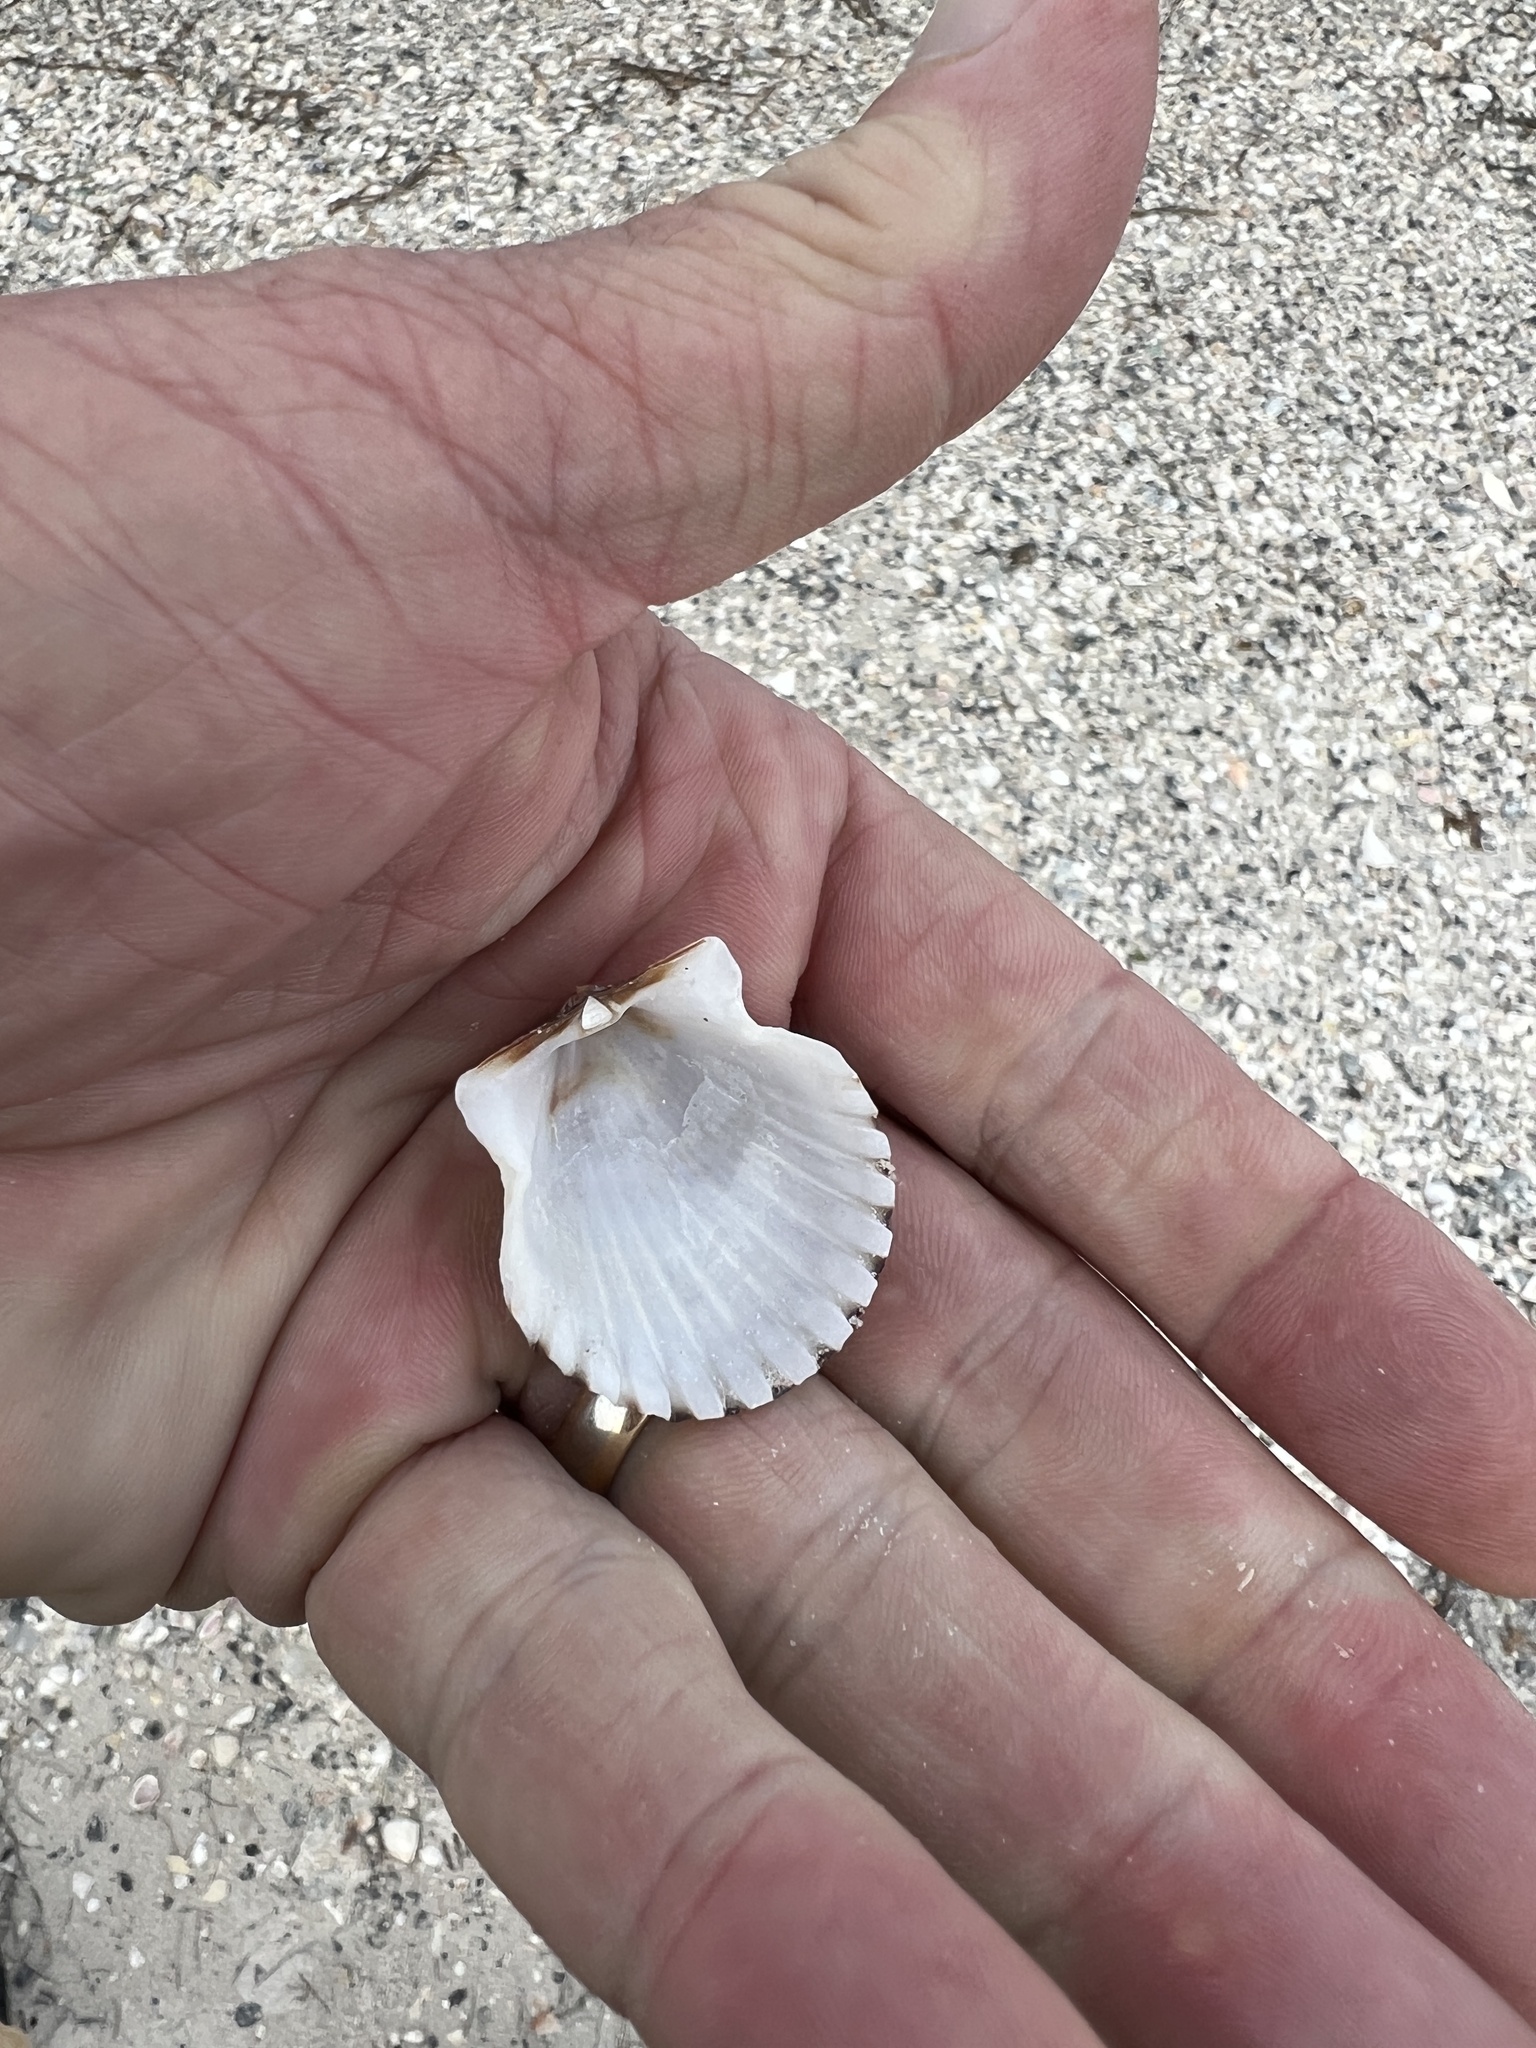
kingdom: Animalia
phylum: Mollusca
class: Bivalvia
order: Pectinida
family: Pectinidae
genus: Argopecten
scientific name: Argopecten irradians
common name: Atlantic bay scallop
